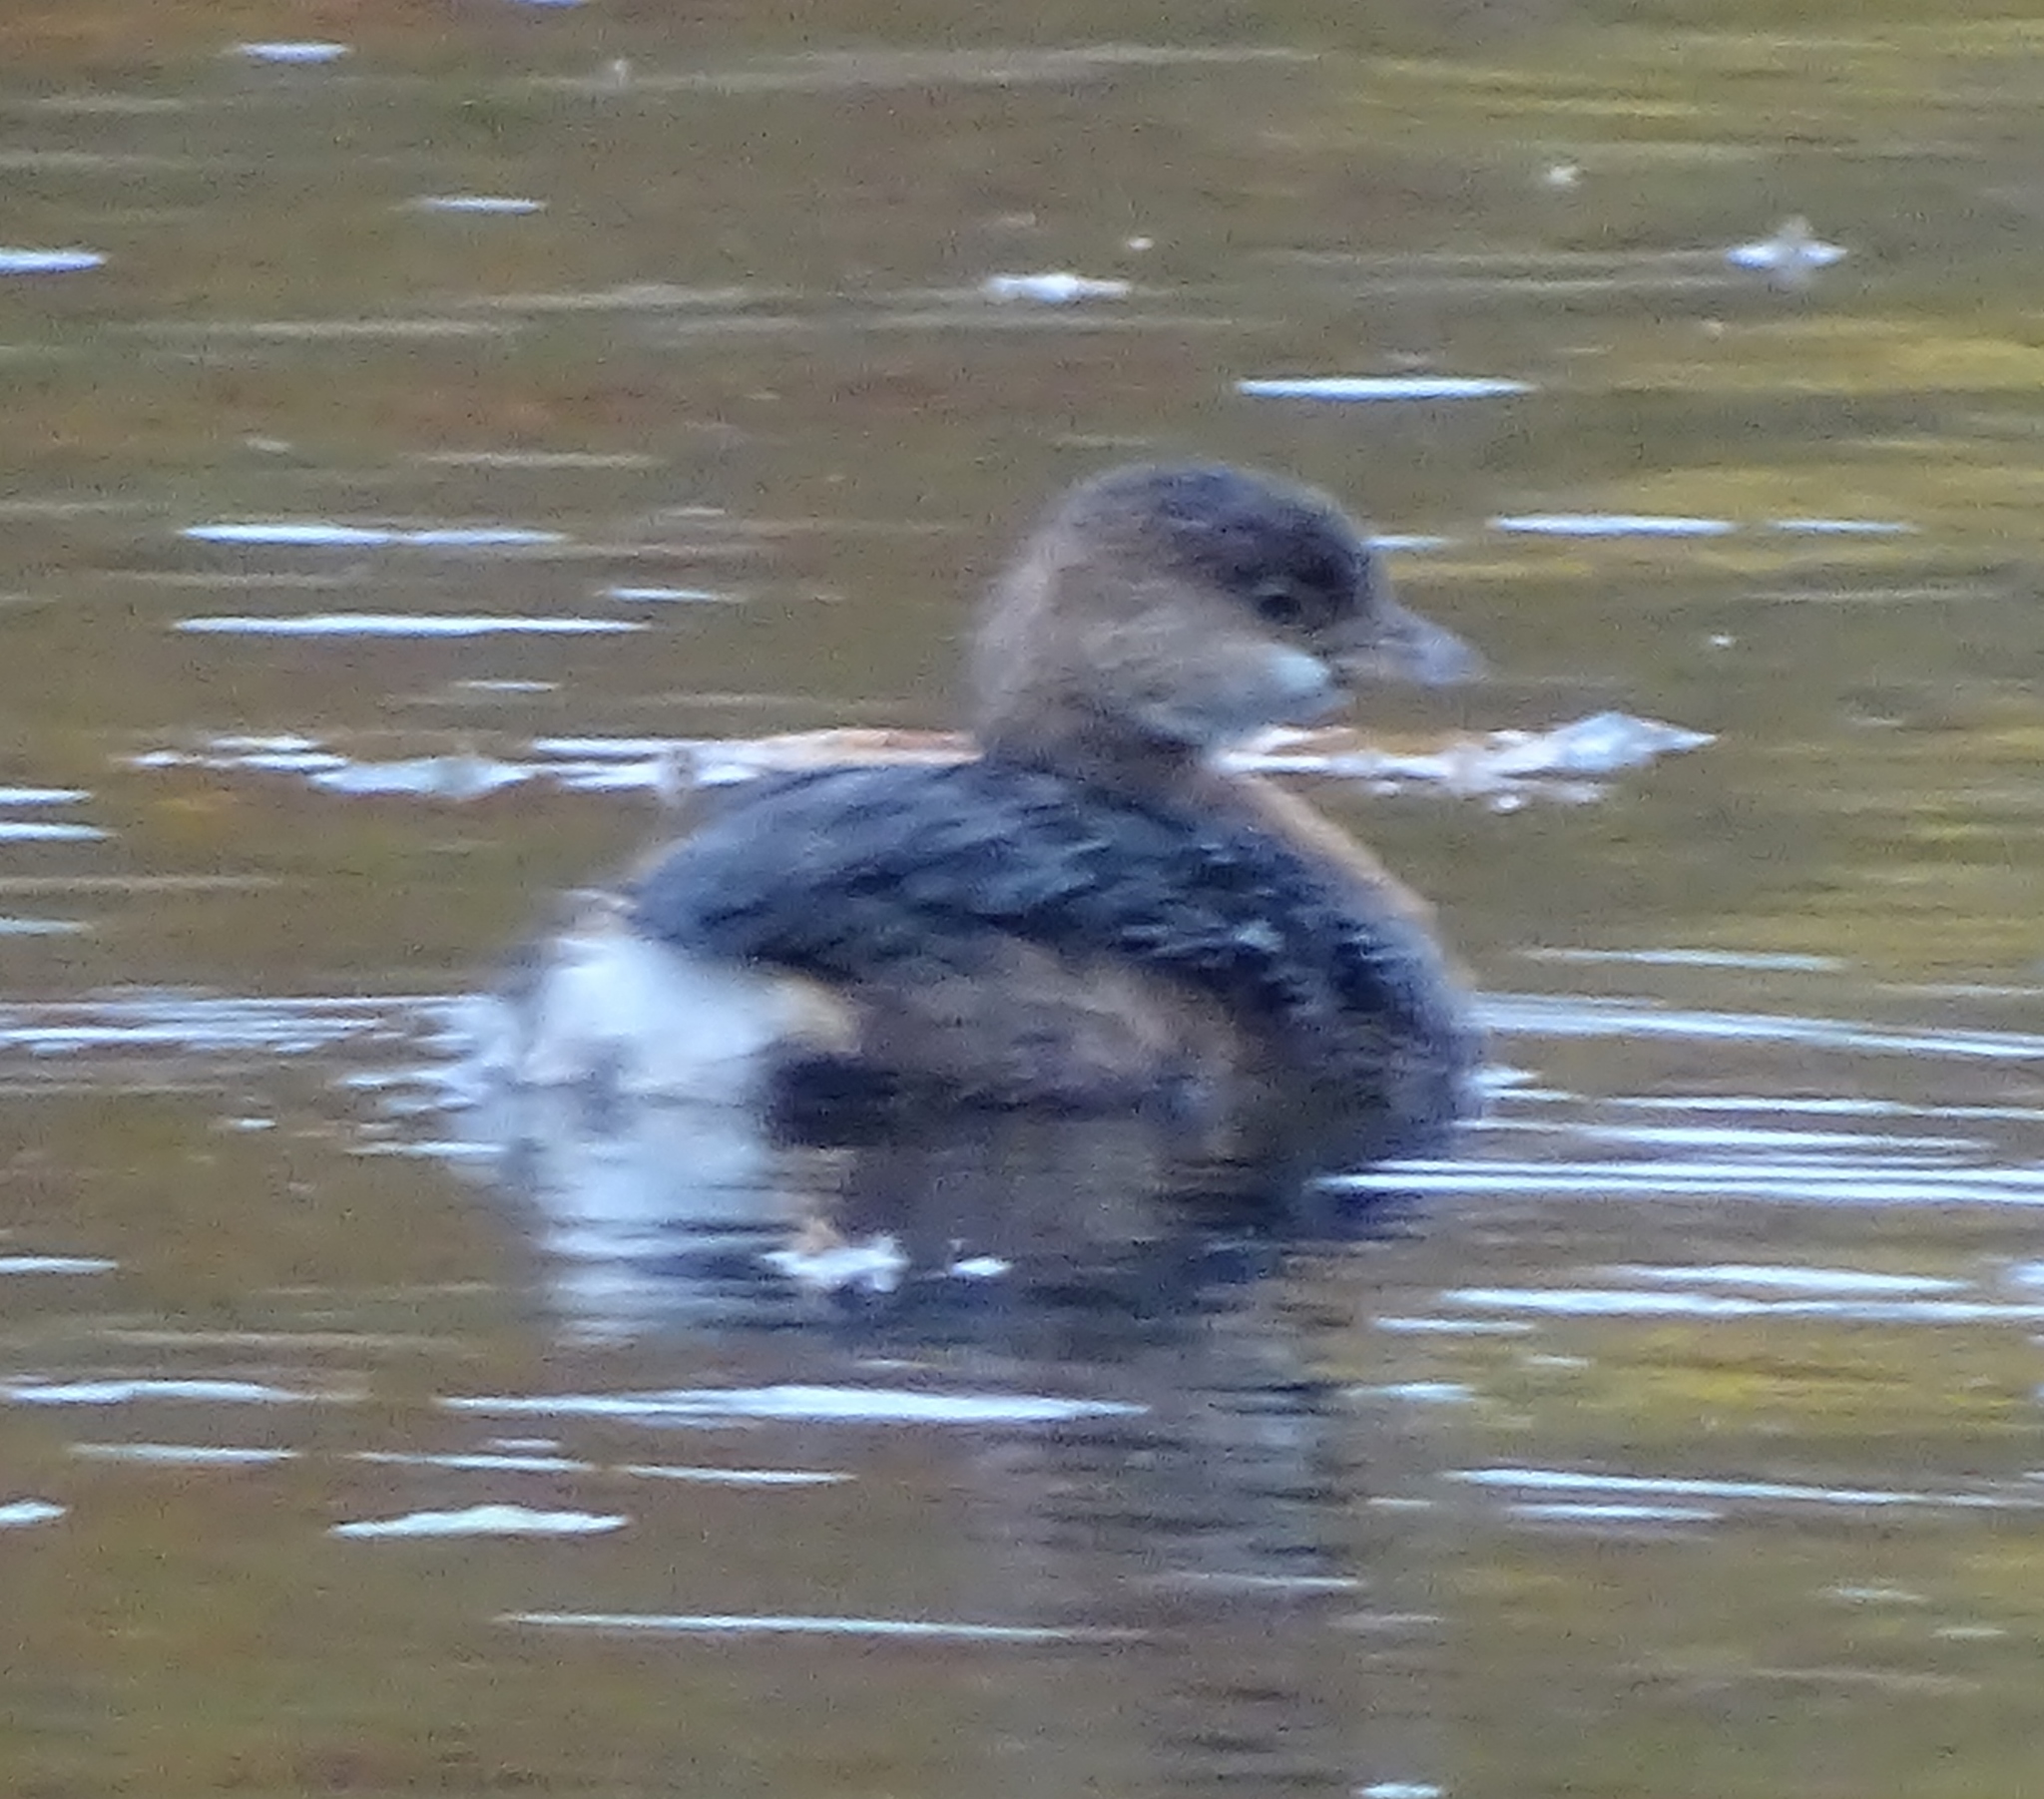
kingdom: Animalia
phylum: Chordata
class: Aves
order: Podicipediformes
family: Podicipedidae
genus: Podilymbus
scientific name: Podilymbus podiceps
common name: Pied-billed grebe
